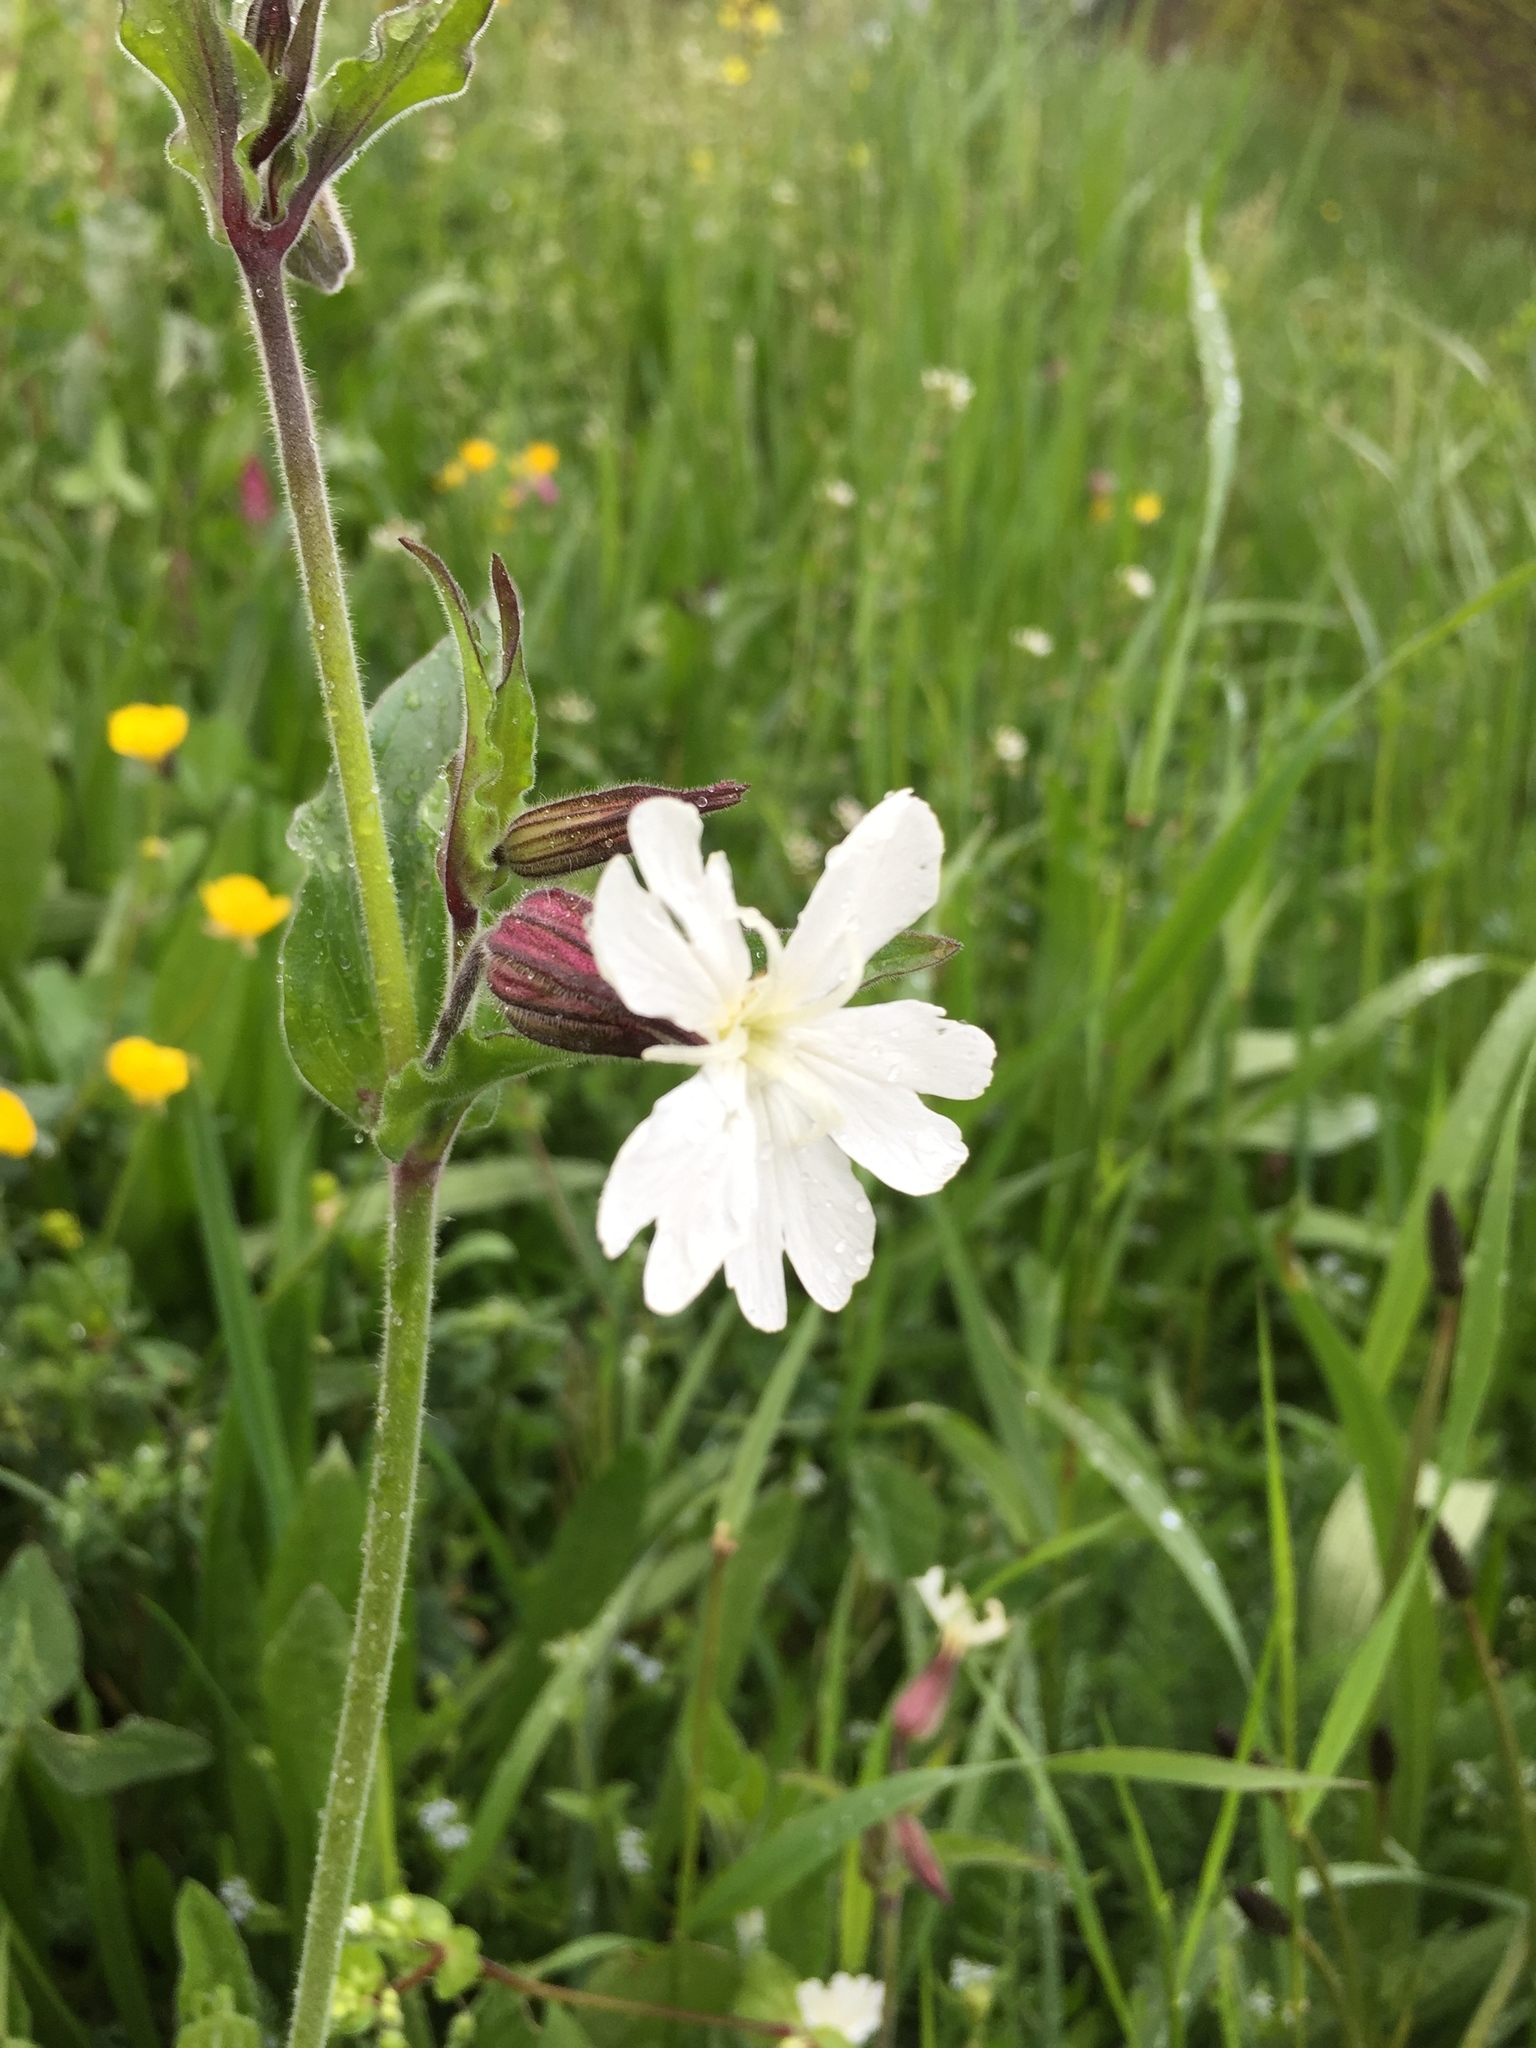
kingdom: Plantae
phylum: Tracheophyta
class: Magnoliopsida
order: Caryophyllales
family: Caryophyllaceae
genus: Silene
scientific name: Silene latifolia
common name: White campion
